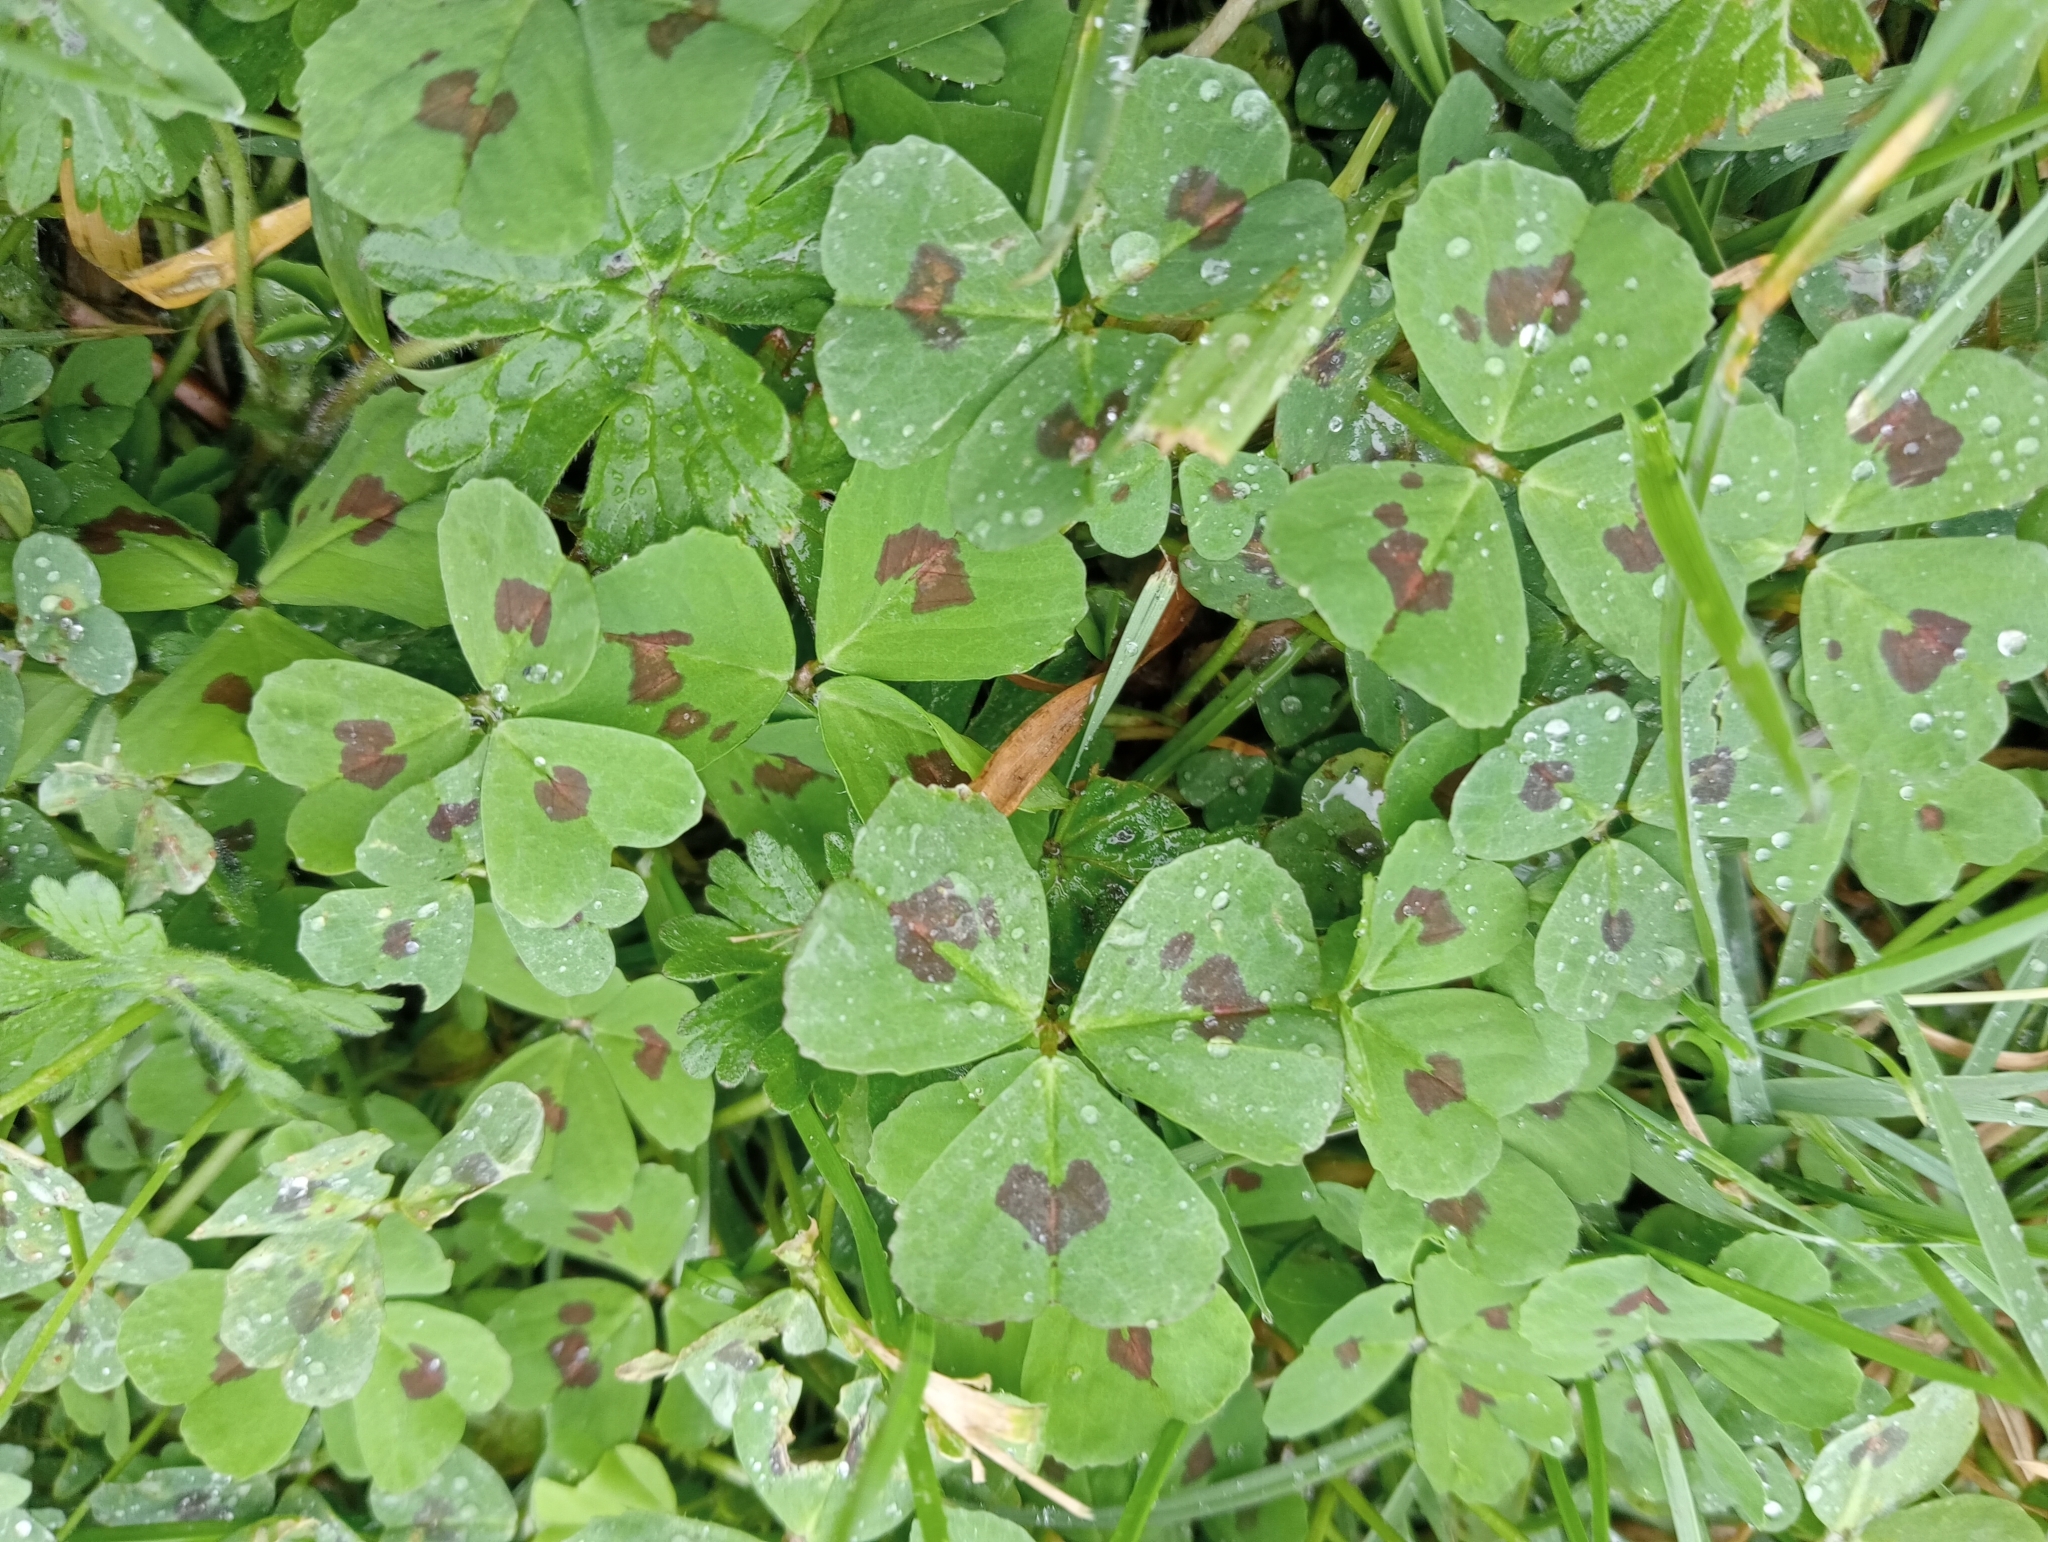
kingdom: Plantae
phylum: Tracheophyta
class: Magnoliopsida
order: Fabales
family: Fabaceae
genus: Medicago
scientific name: Medicago arabica
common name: Spotted medick
